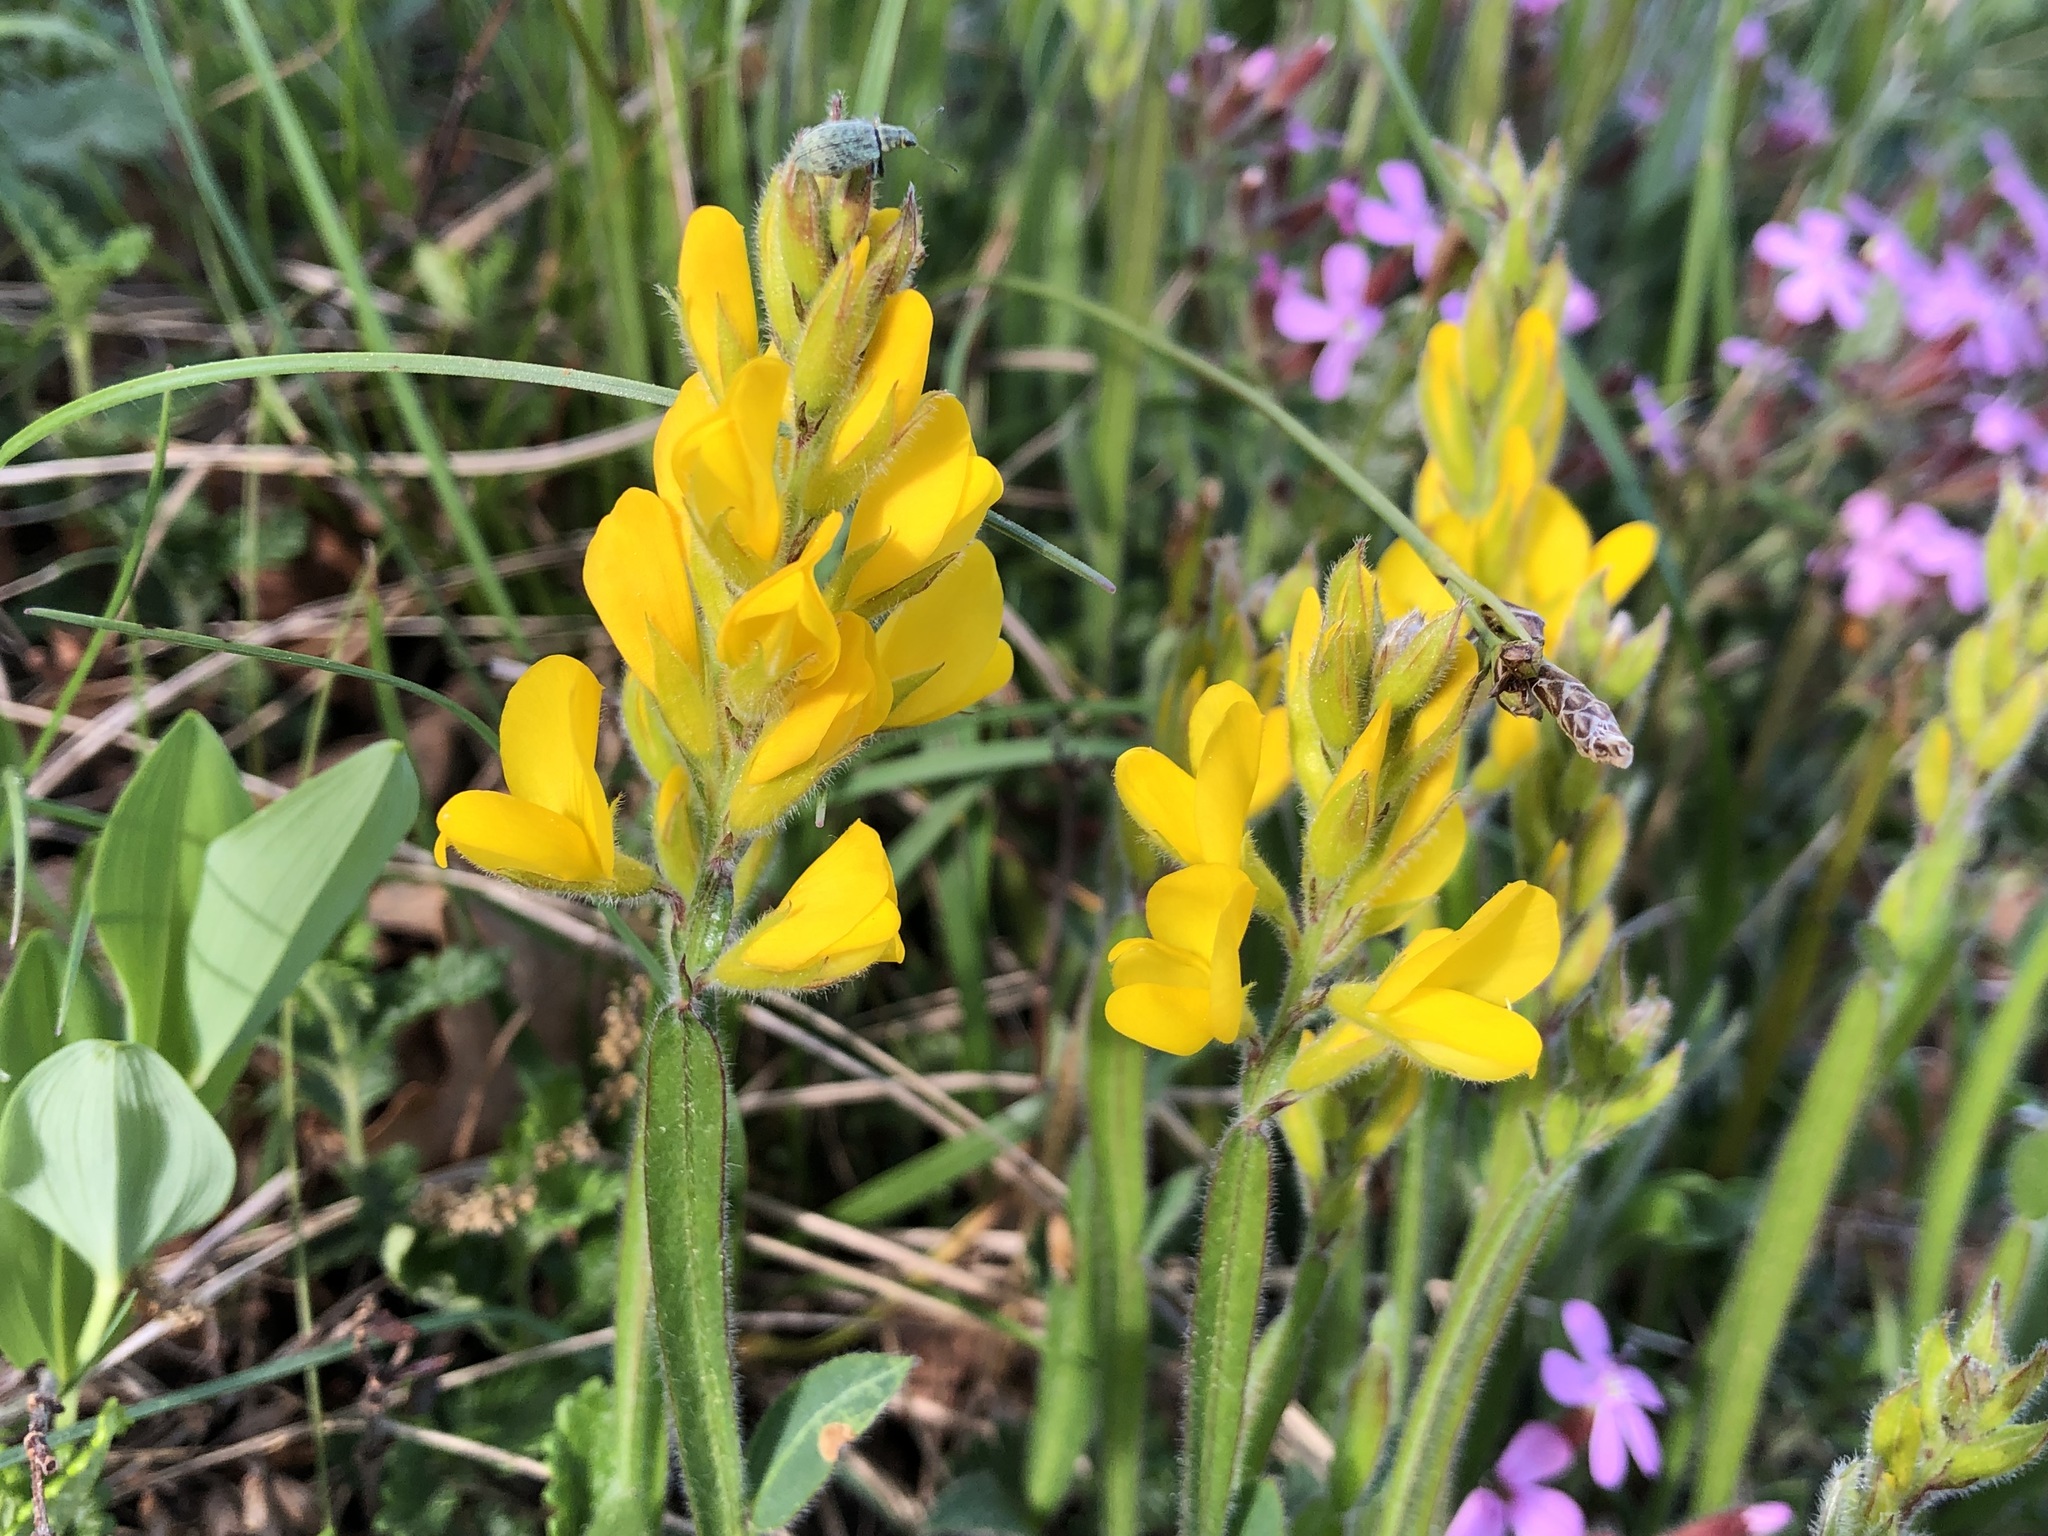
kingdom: Plantae
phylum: Tracheophyta
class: Magnoliopsida
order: Fabales
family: Fabaceae
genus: Genista
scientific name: Genista sagittalis
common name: Winged greenweed
